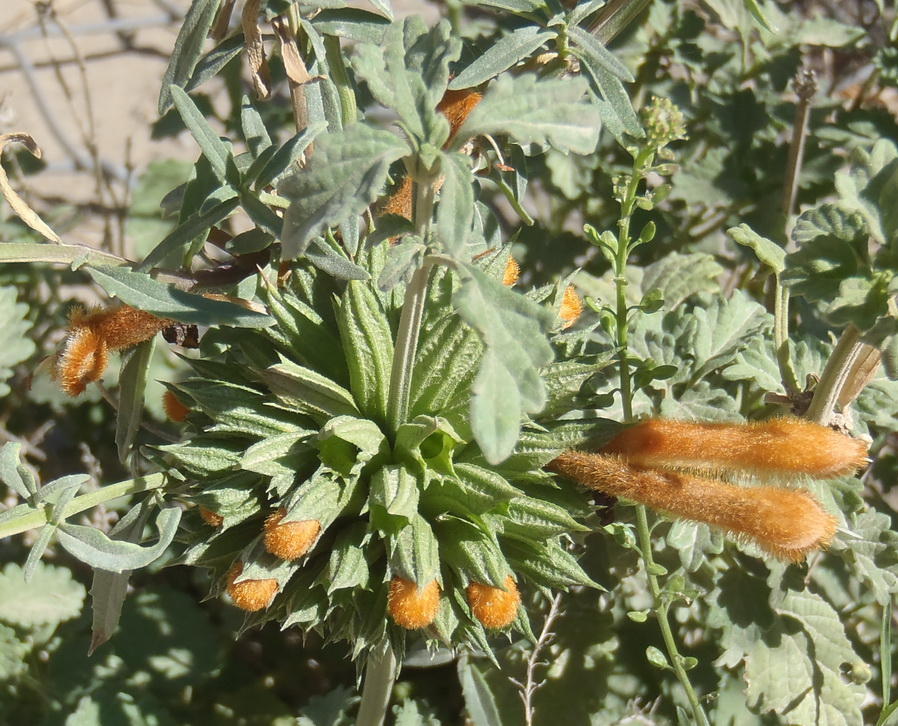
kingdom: Plantae
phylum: Tracheophyta
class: Magnoliopsida
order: Lamiales
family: Lamiaceae
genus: Leonotis
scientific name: Leonotis ocymifolia
